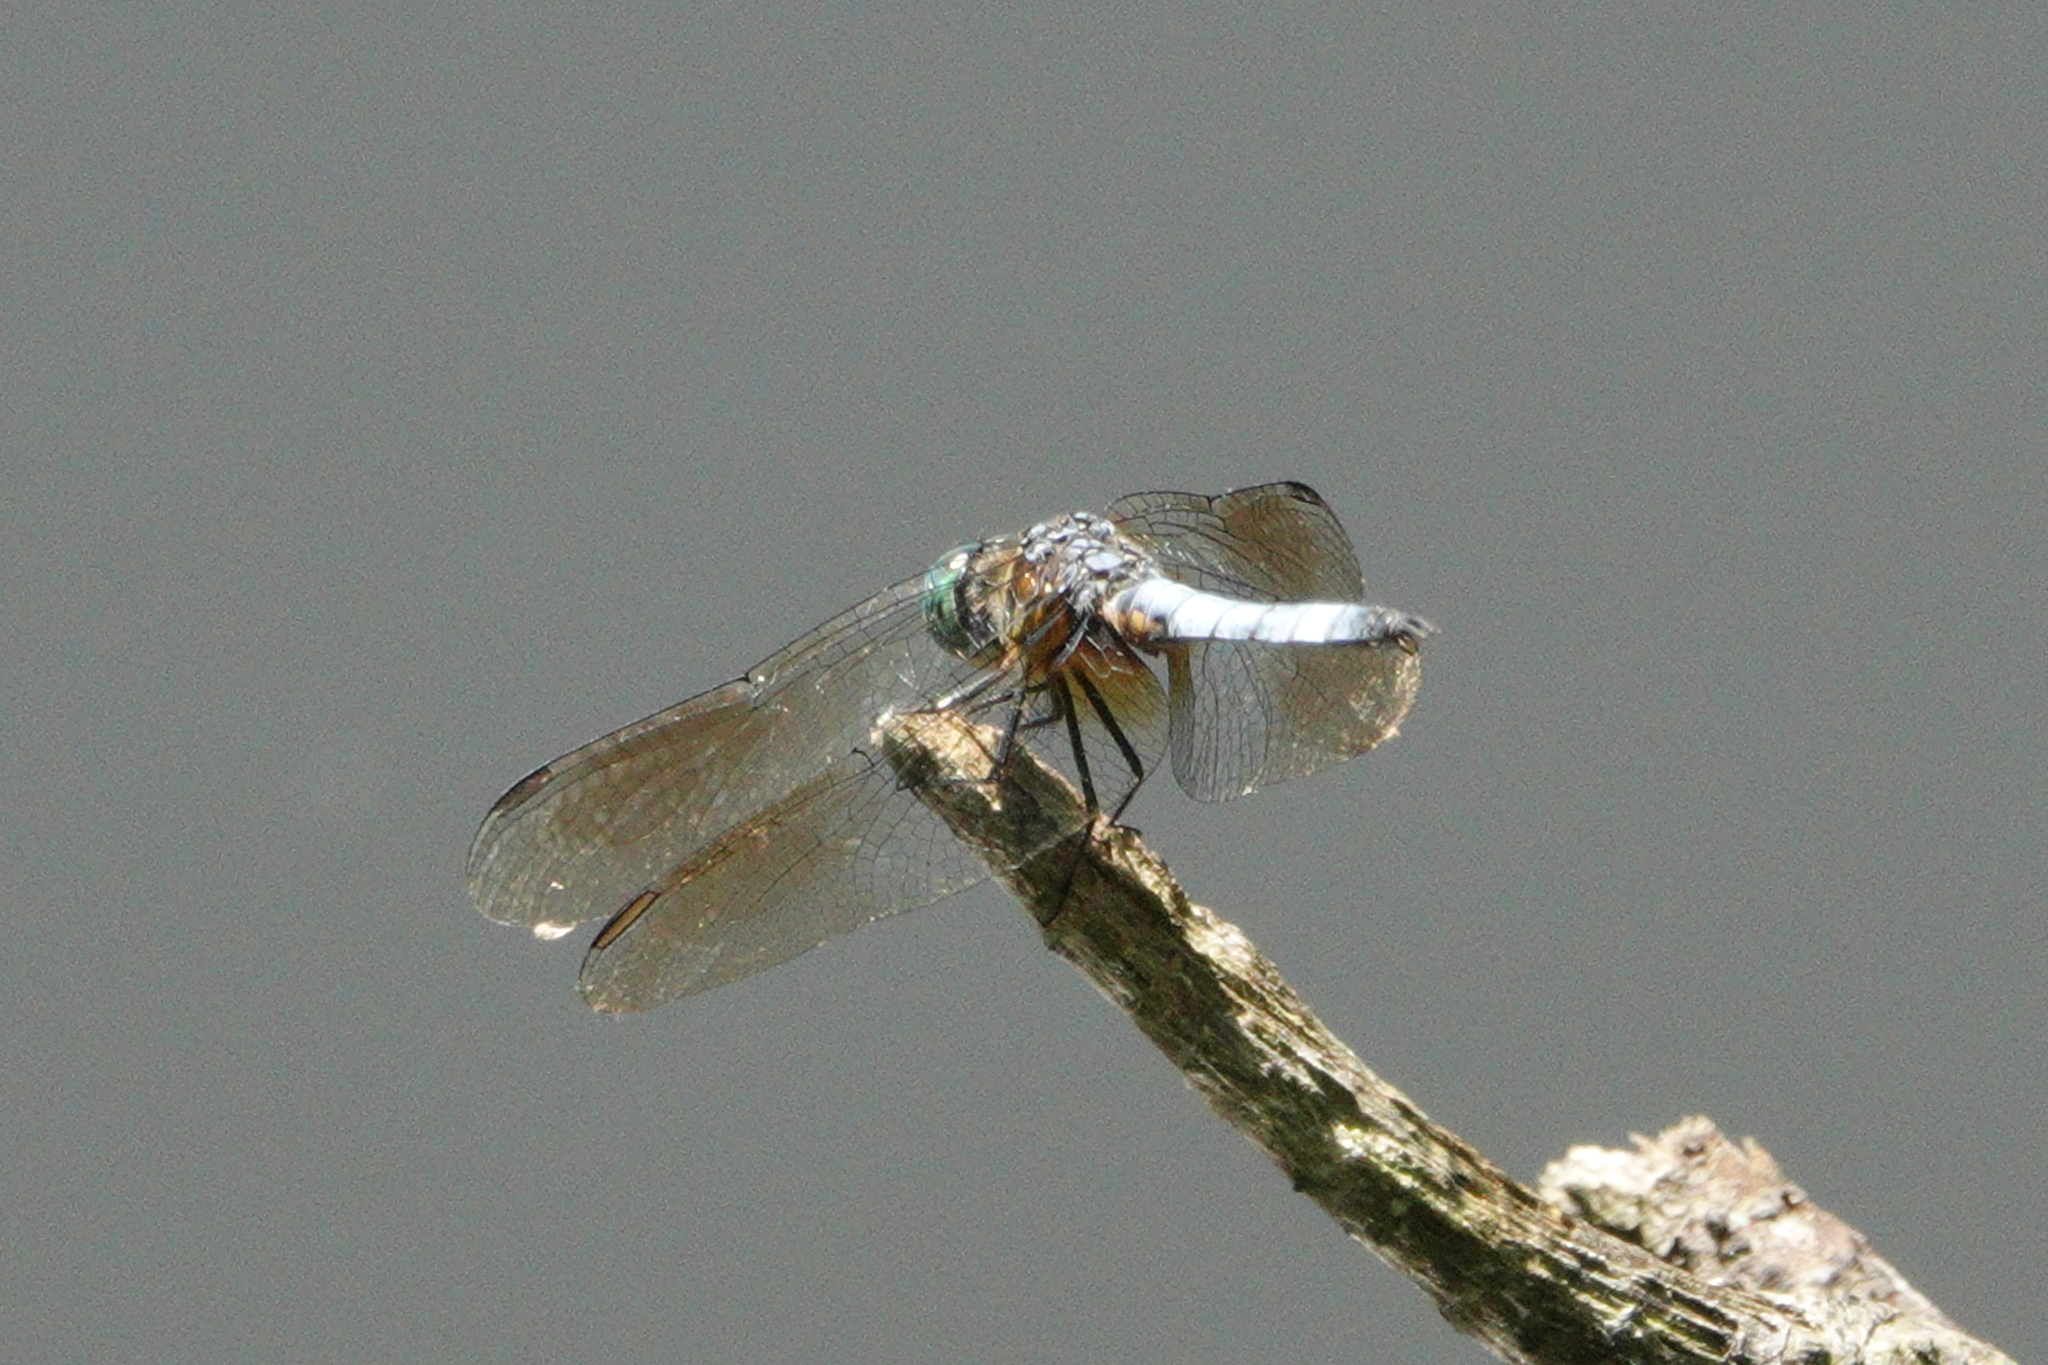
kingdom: Animalia
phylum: Arthropoda
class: Insecta
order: Odonata
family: Libellulidae
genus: Pachydiplax
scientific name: Pachydiplax longipennis
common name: Blue dasher
